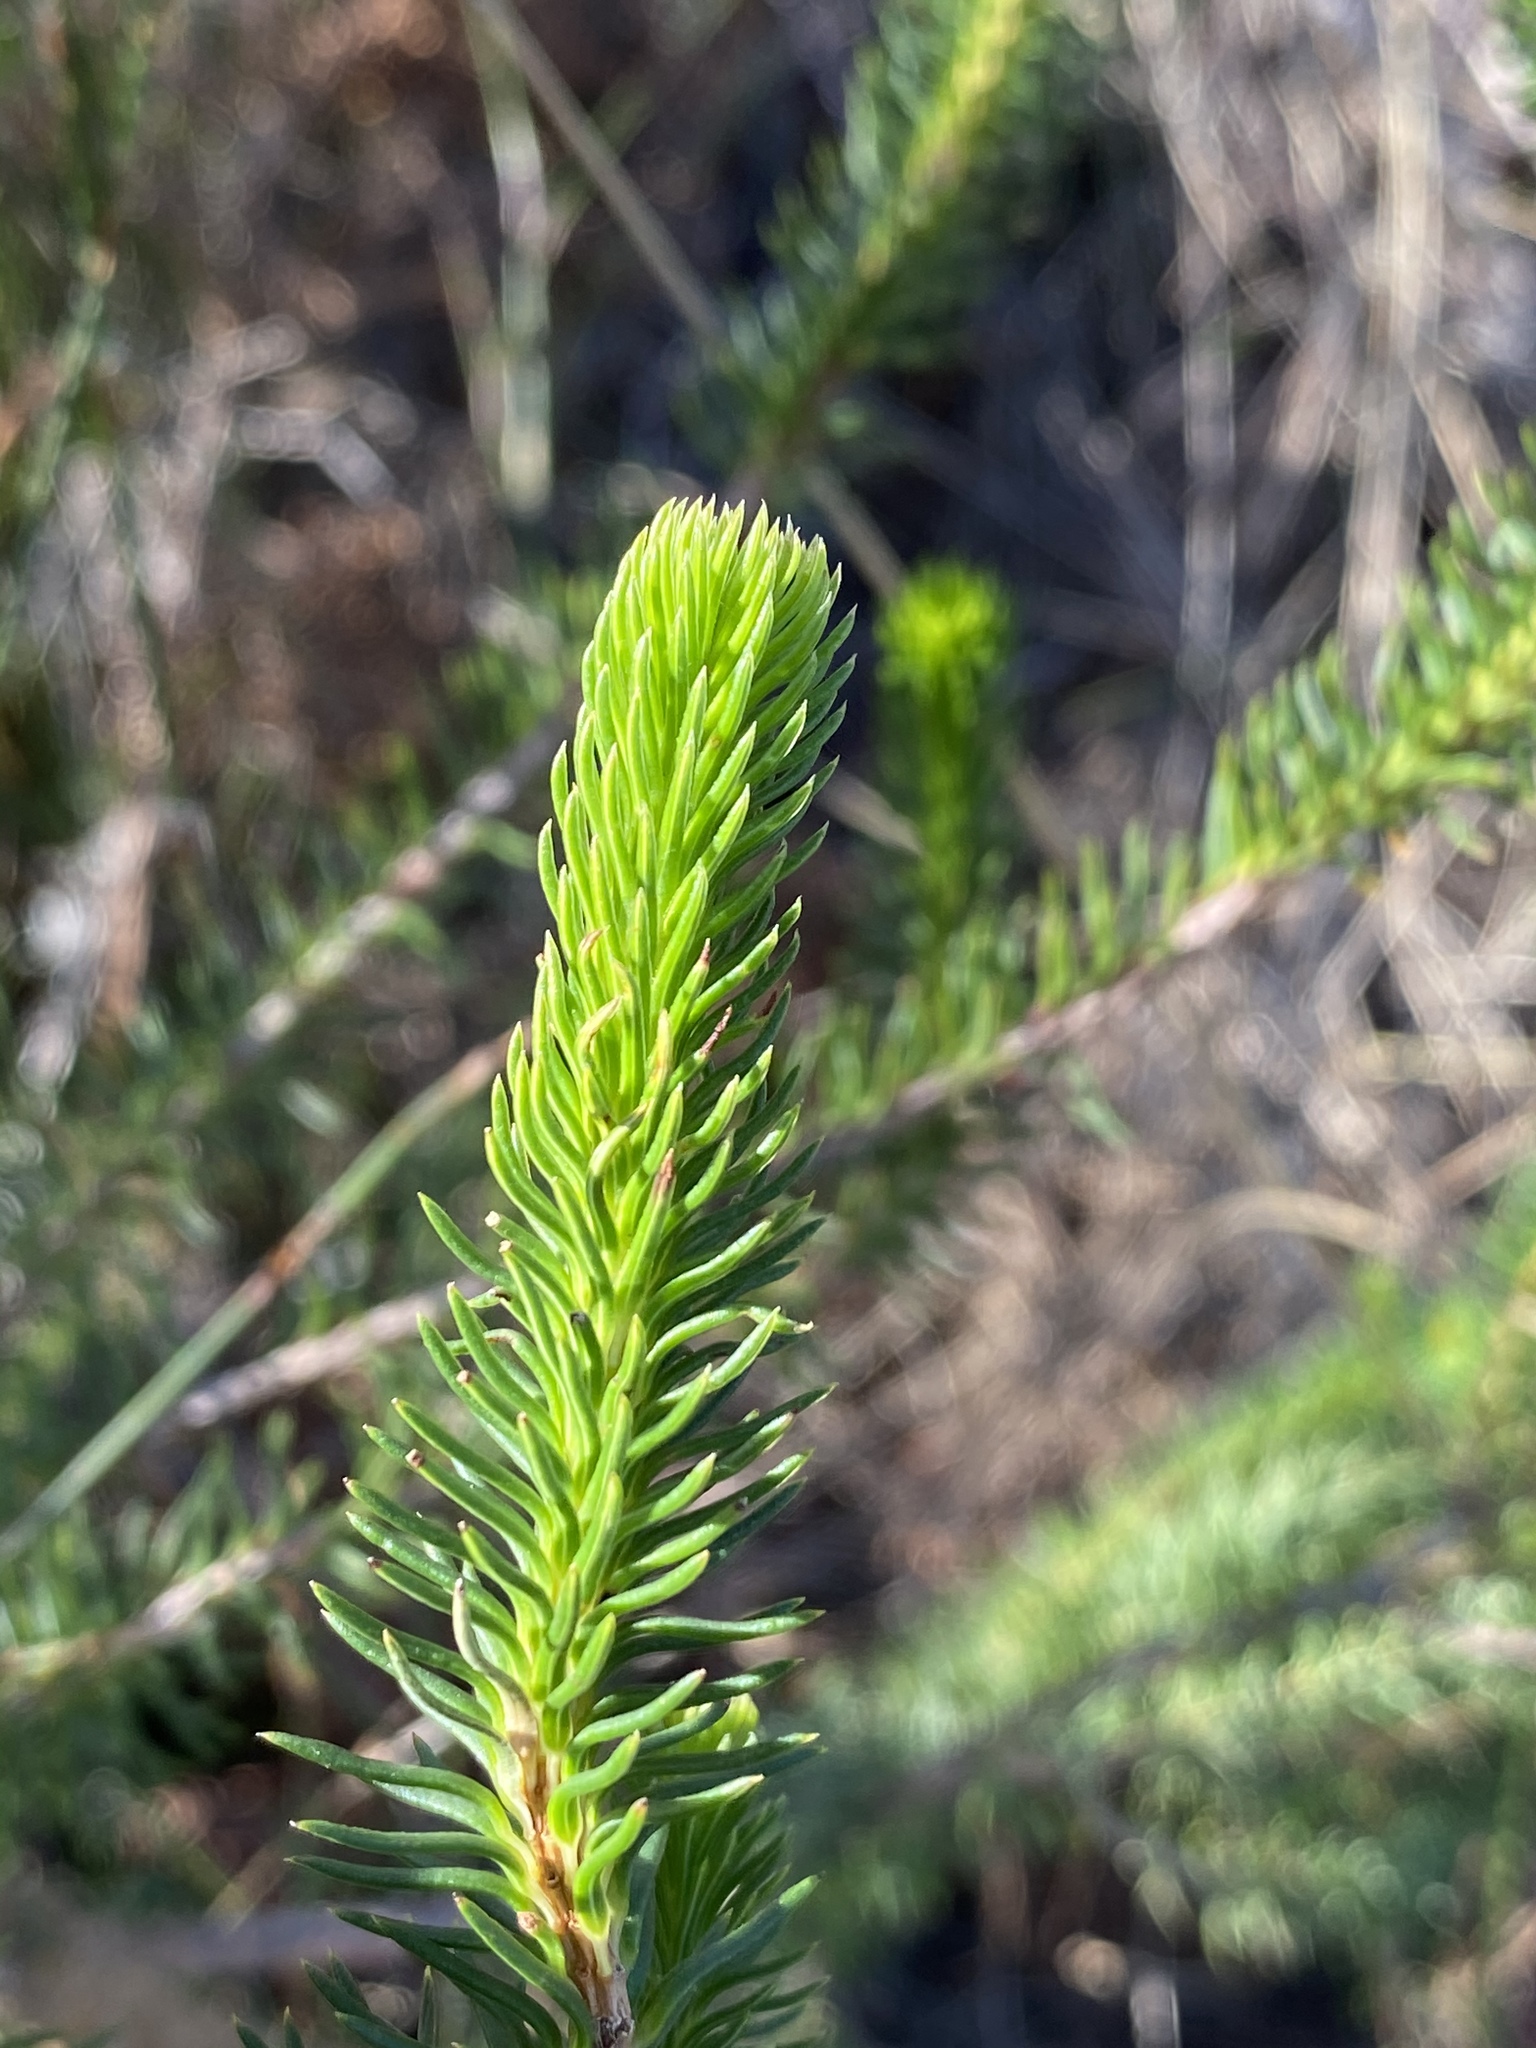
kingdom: Plantae
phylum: Tracheophyta
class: Magnoliopsida
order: Ericales
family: Ericaceae
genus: Erica
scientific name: Erica sessiliflora
